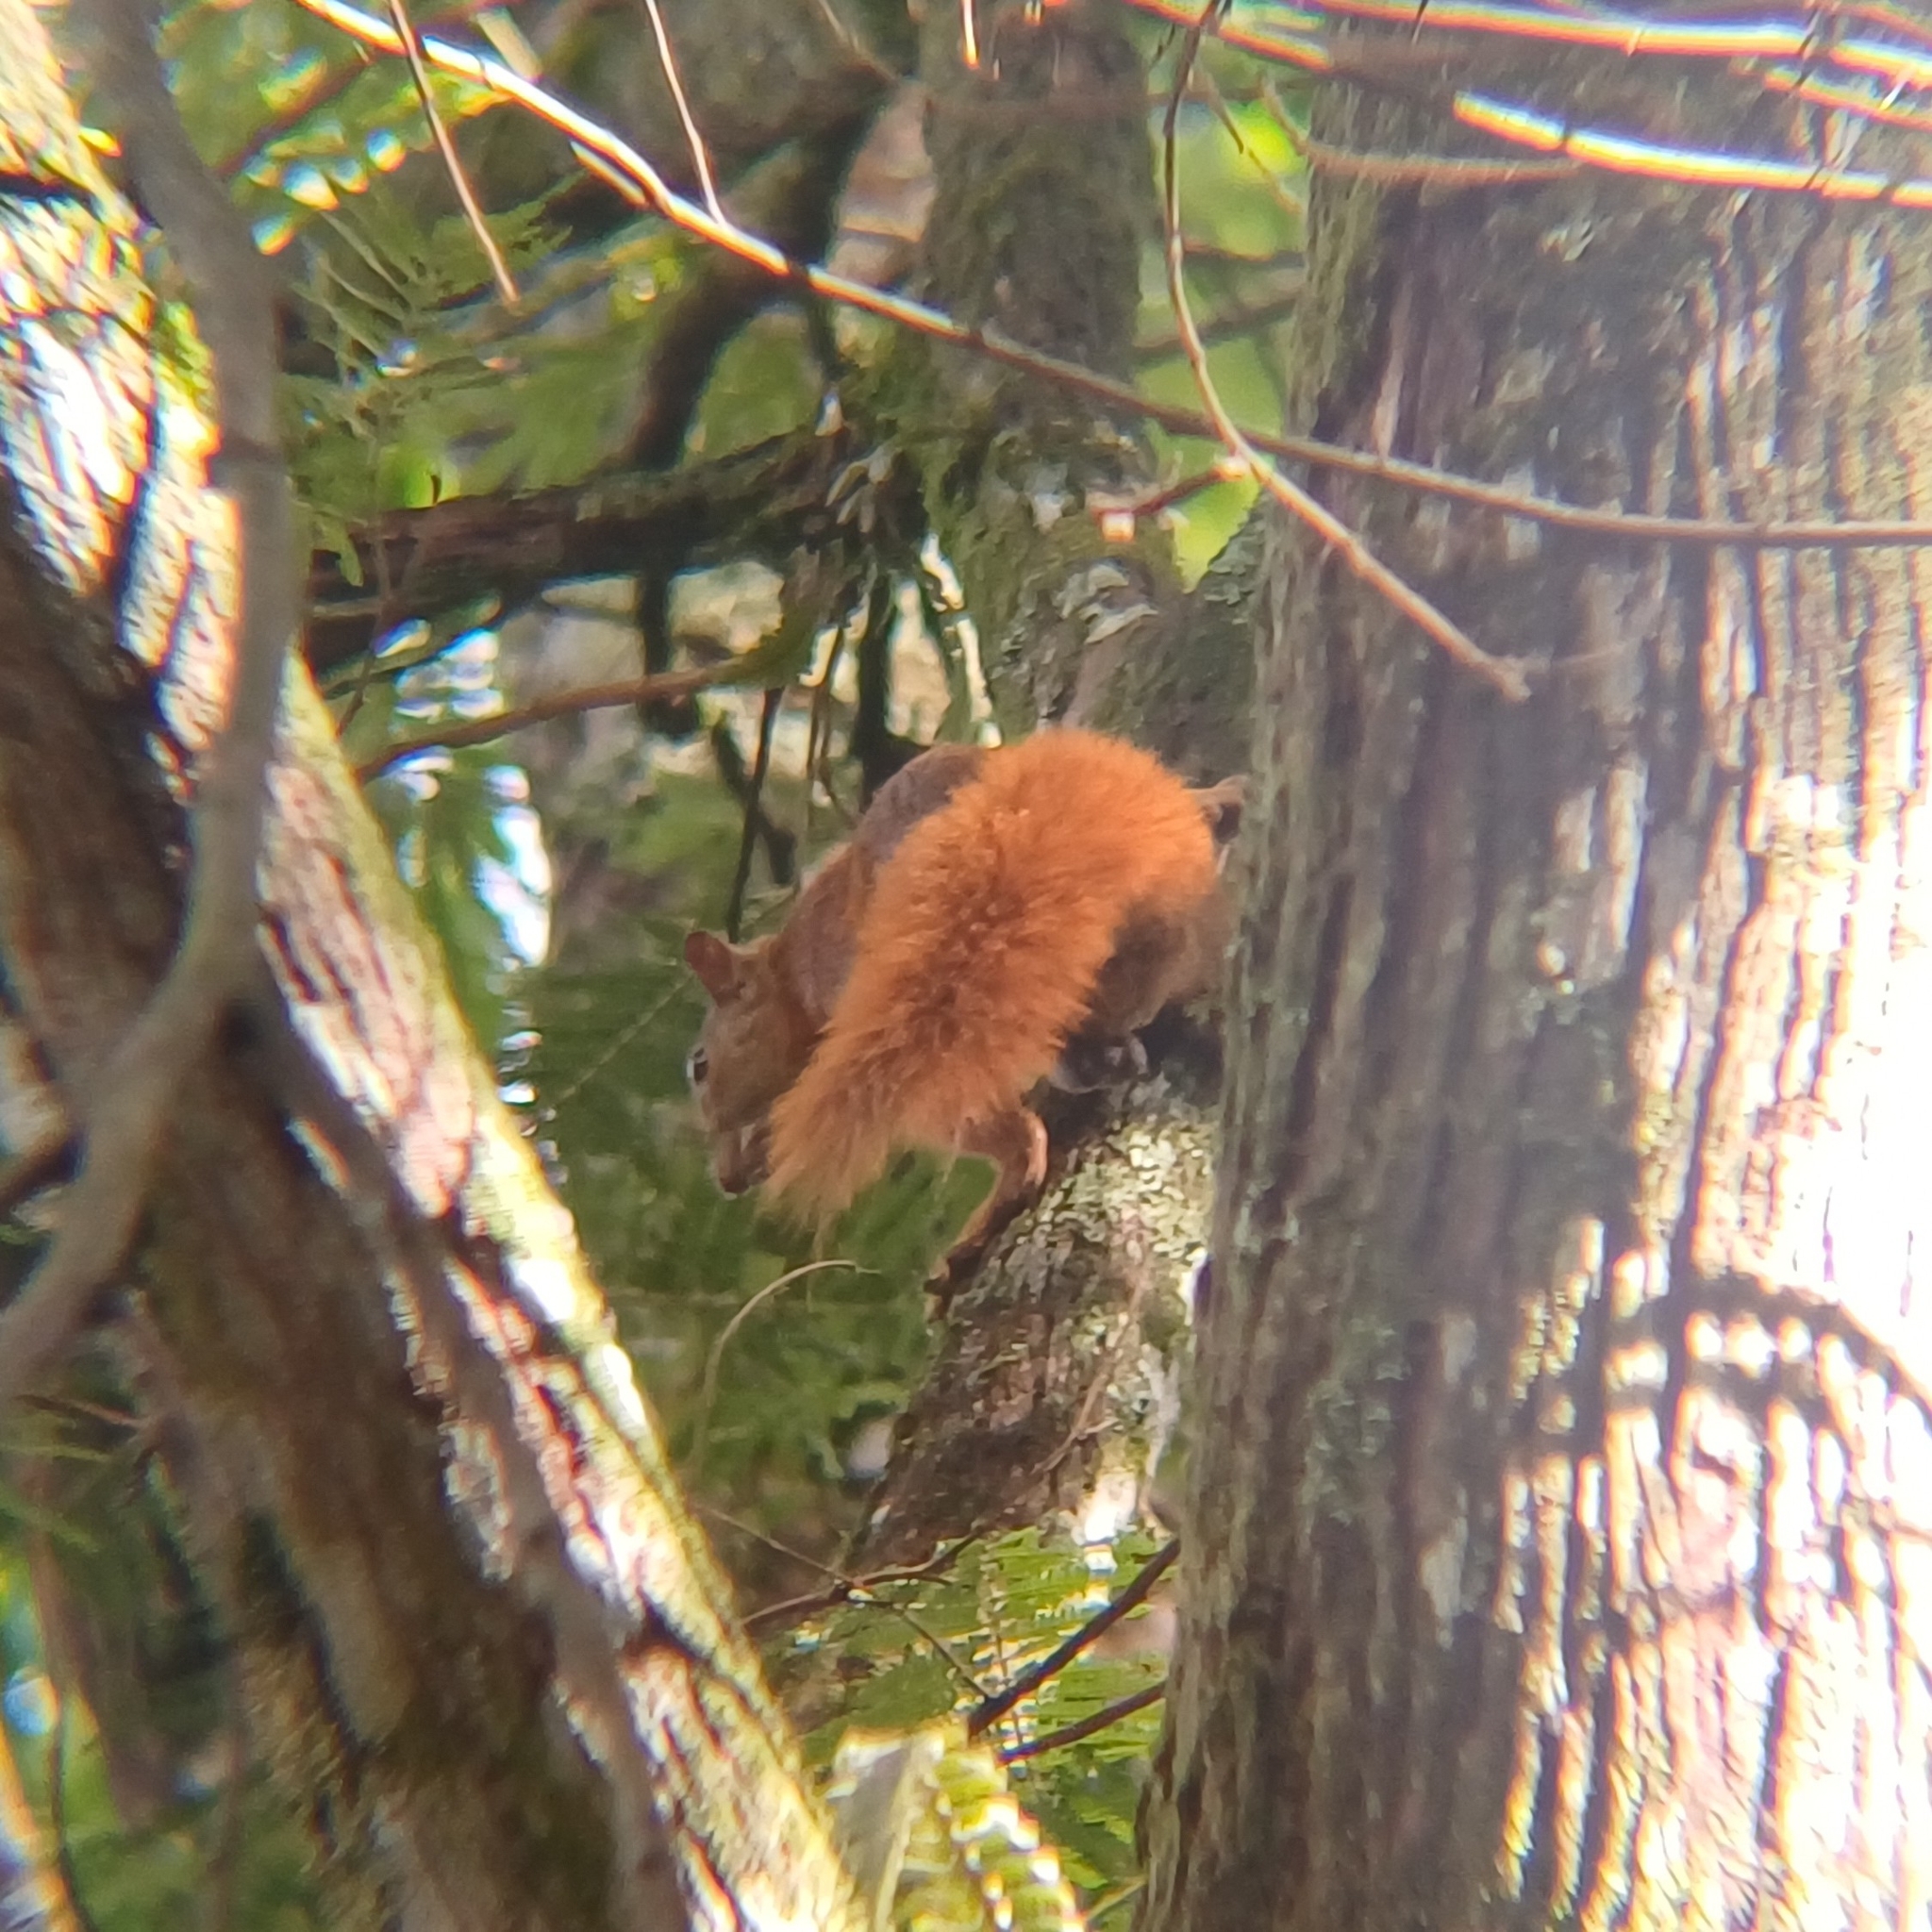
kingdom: Animalia
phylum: Chordata
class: Mammalia
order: Rodentia
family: Sciuridae
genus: Sciurus
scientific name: Sciurus granatensis
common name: Red-tailed squirrel
